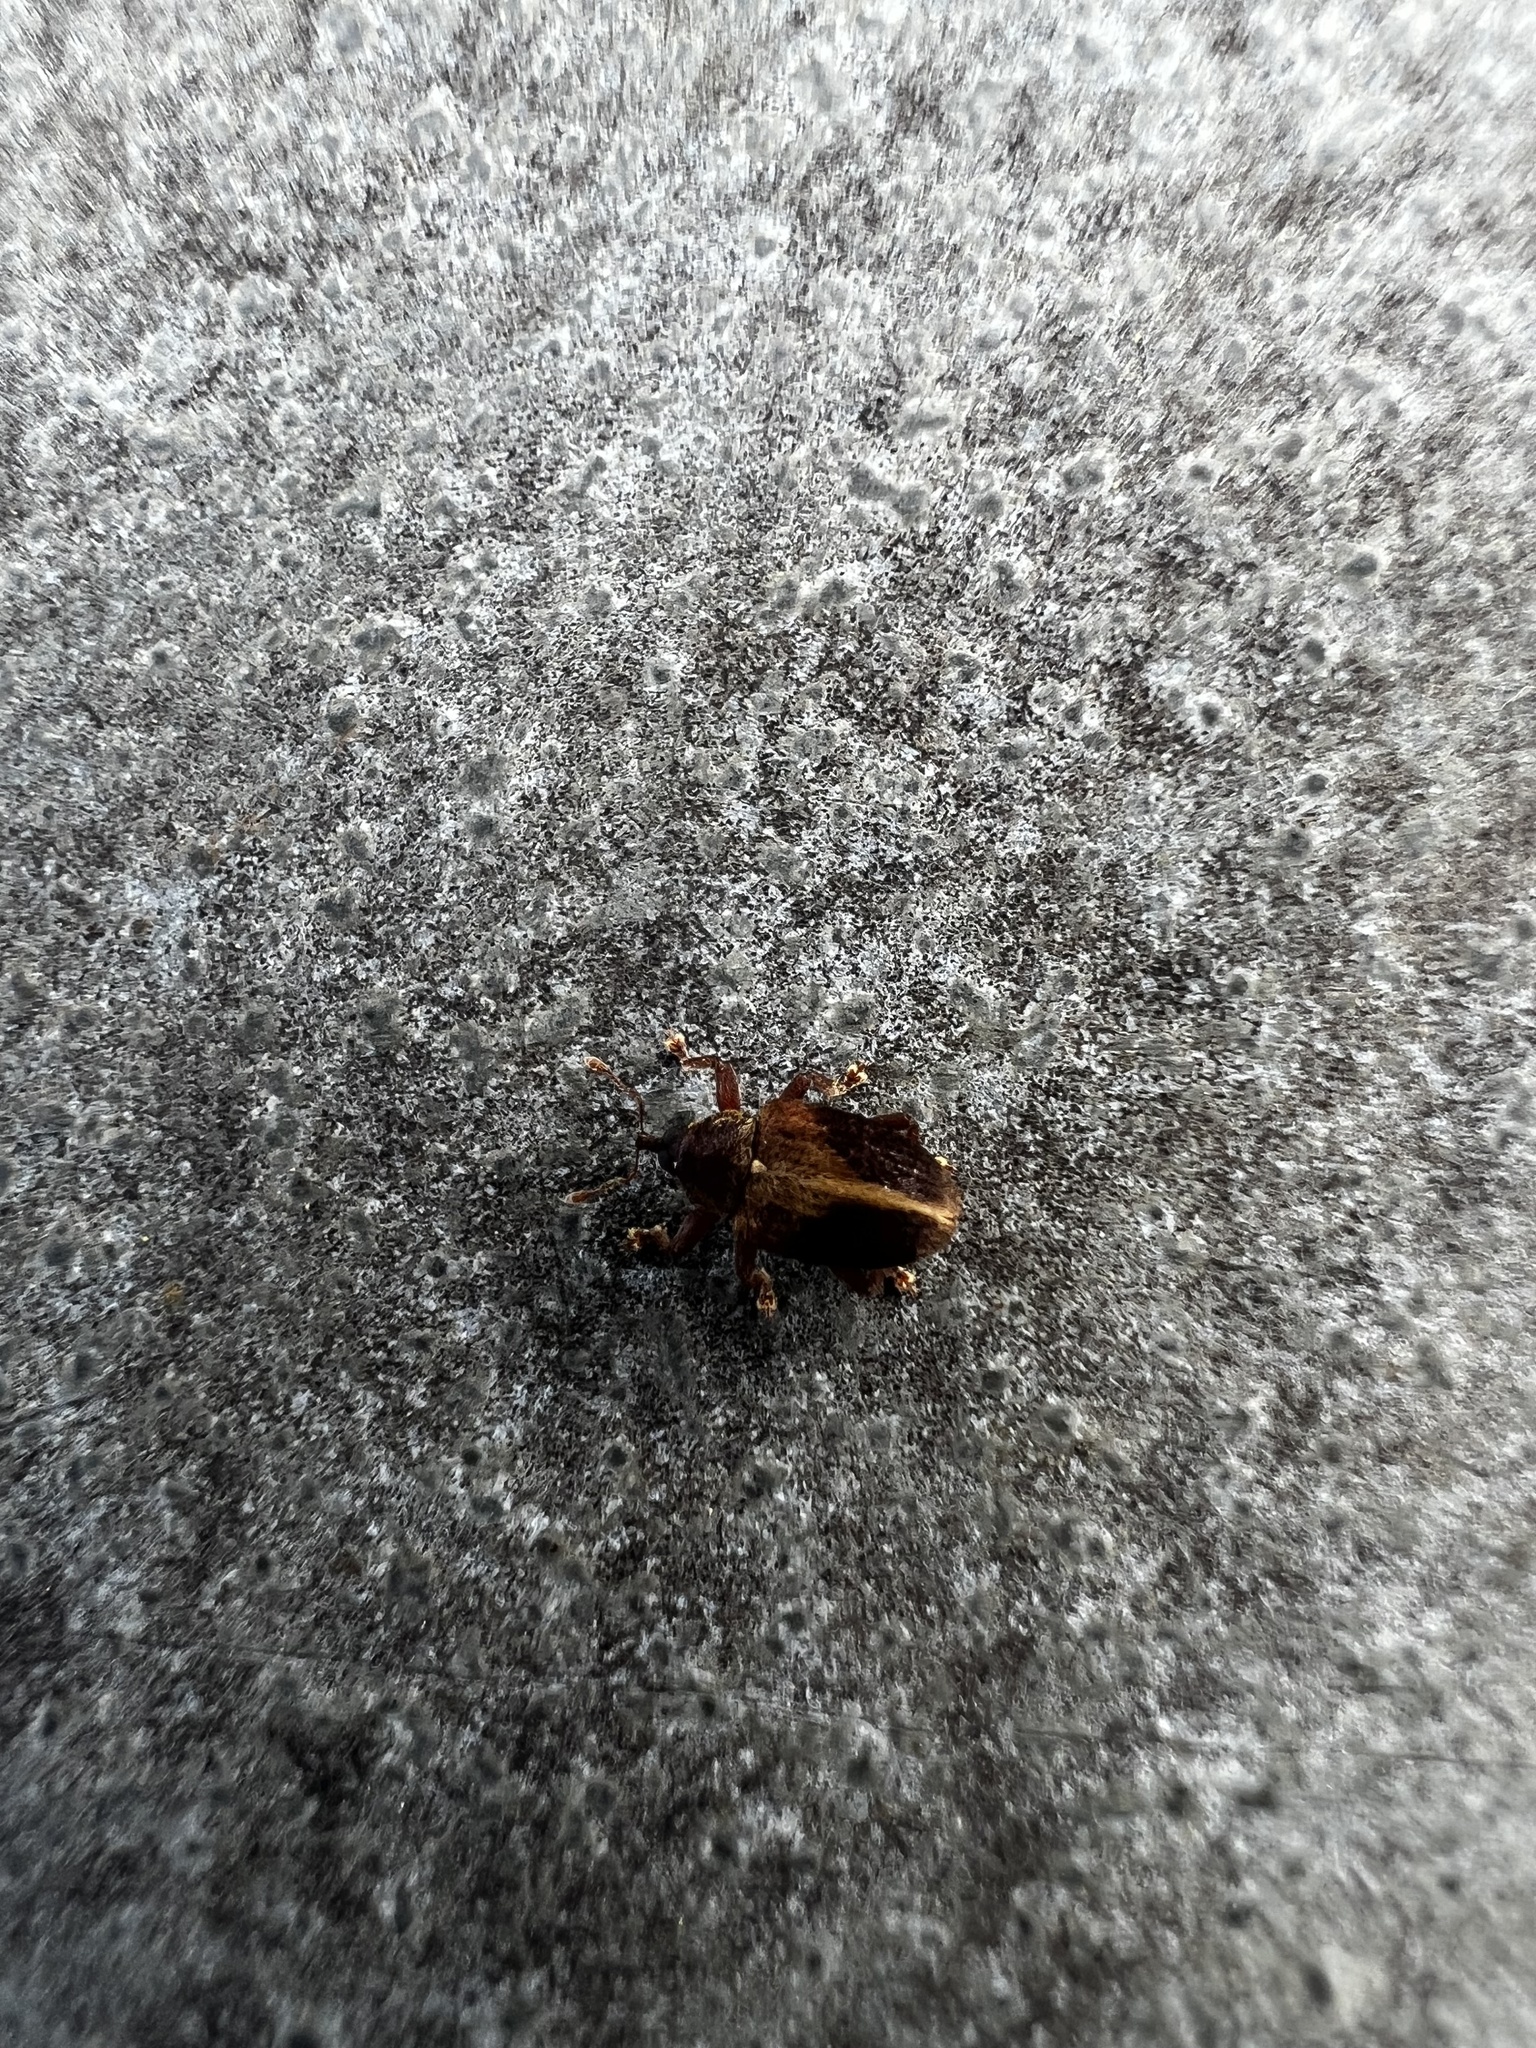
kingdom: Animalia
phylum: Arthropoda
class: Insecta
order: Coleoptera
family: Curculionidae
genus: Lignyodes
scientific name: Lignyodes enucleator
